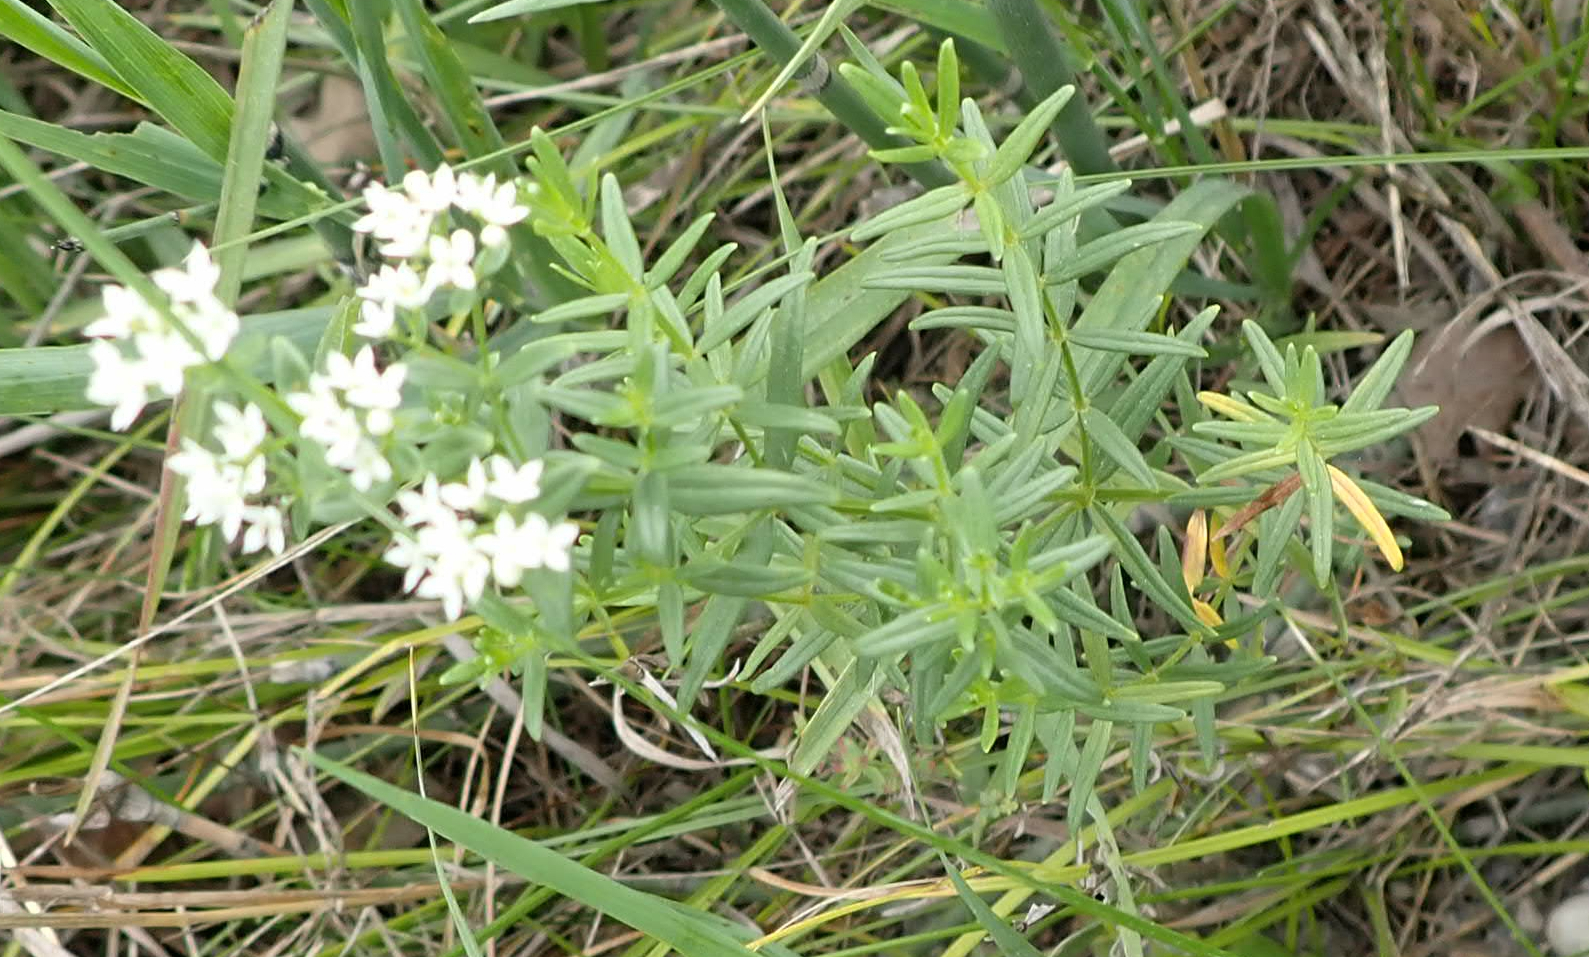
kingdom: Plantae
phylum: Tracheophyta
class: Magnoliopsida
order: Gentianales
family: Rubiaceae
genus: Galium
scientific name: Galium boreale
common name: Northern bedstraw
